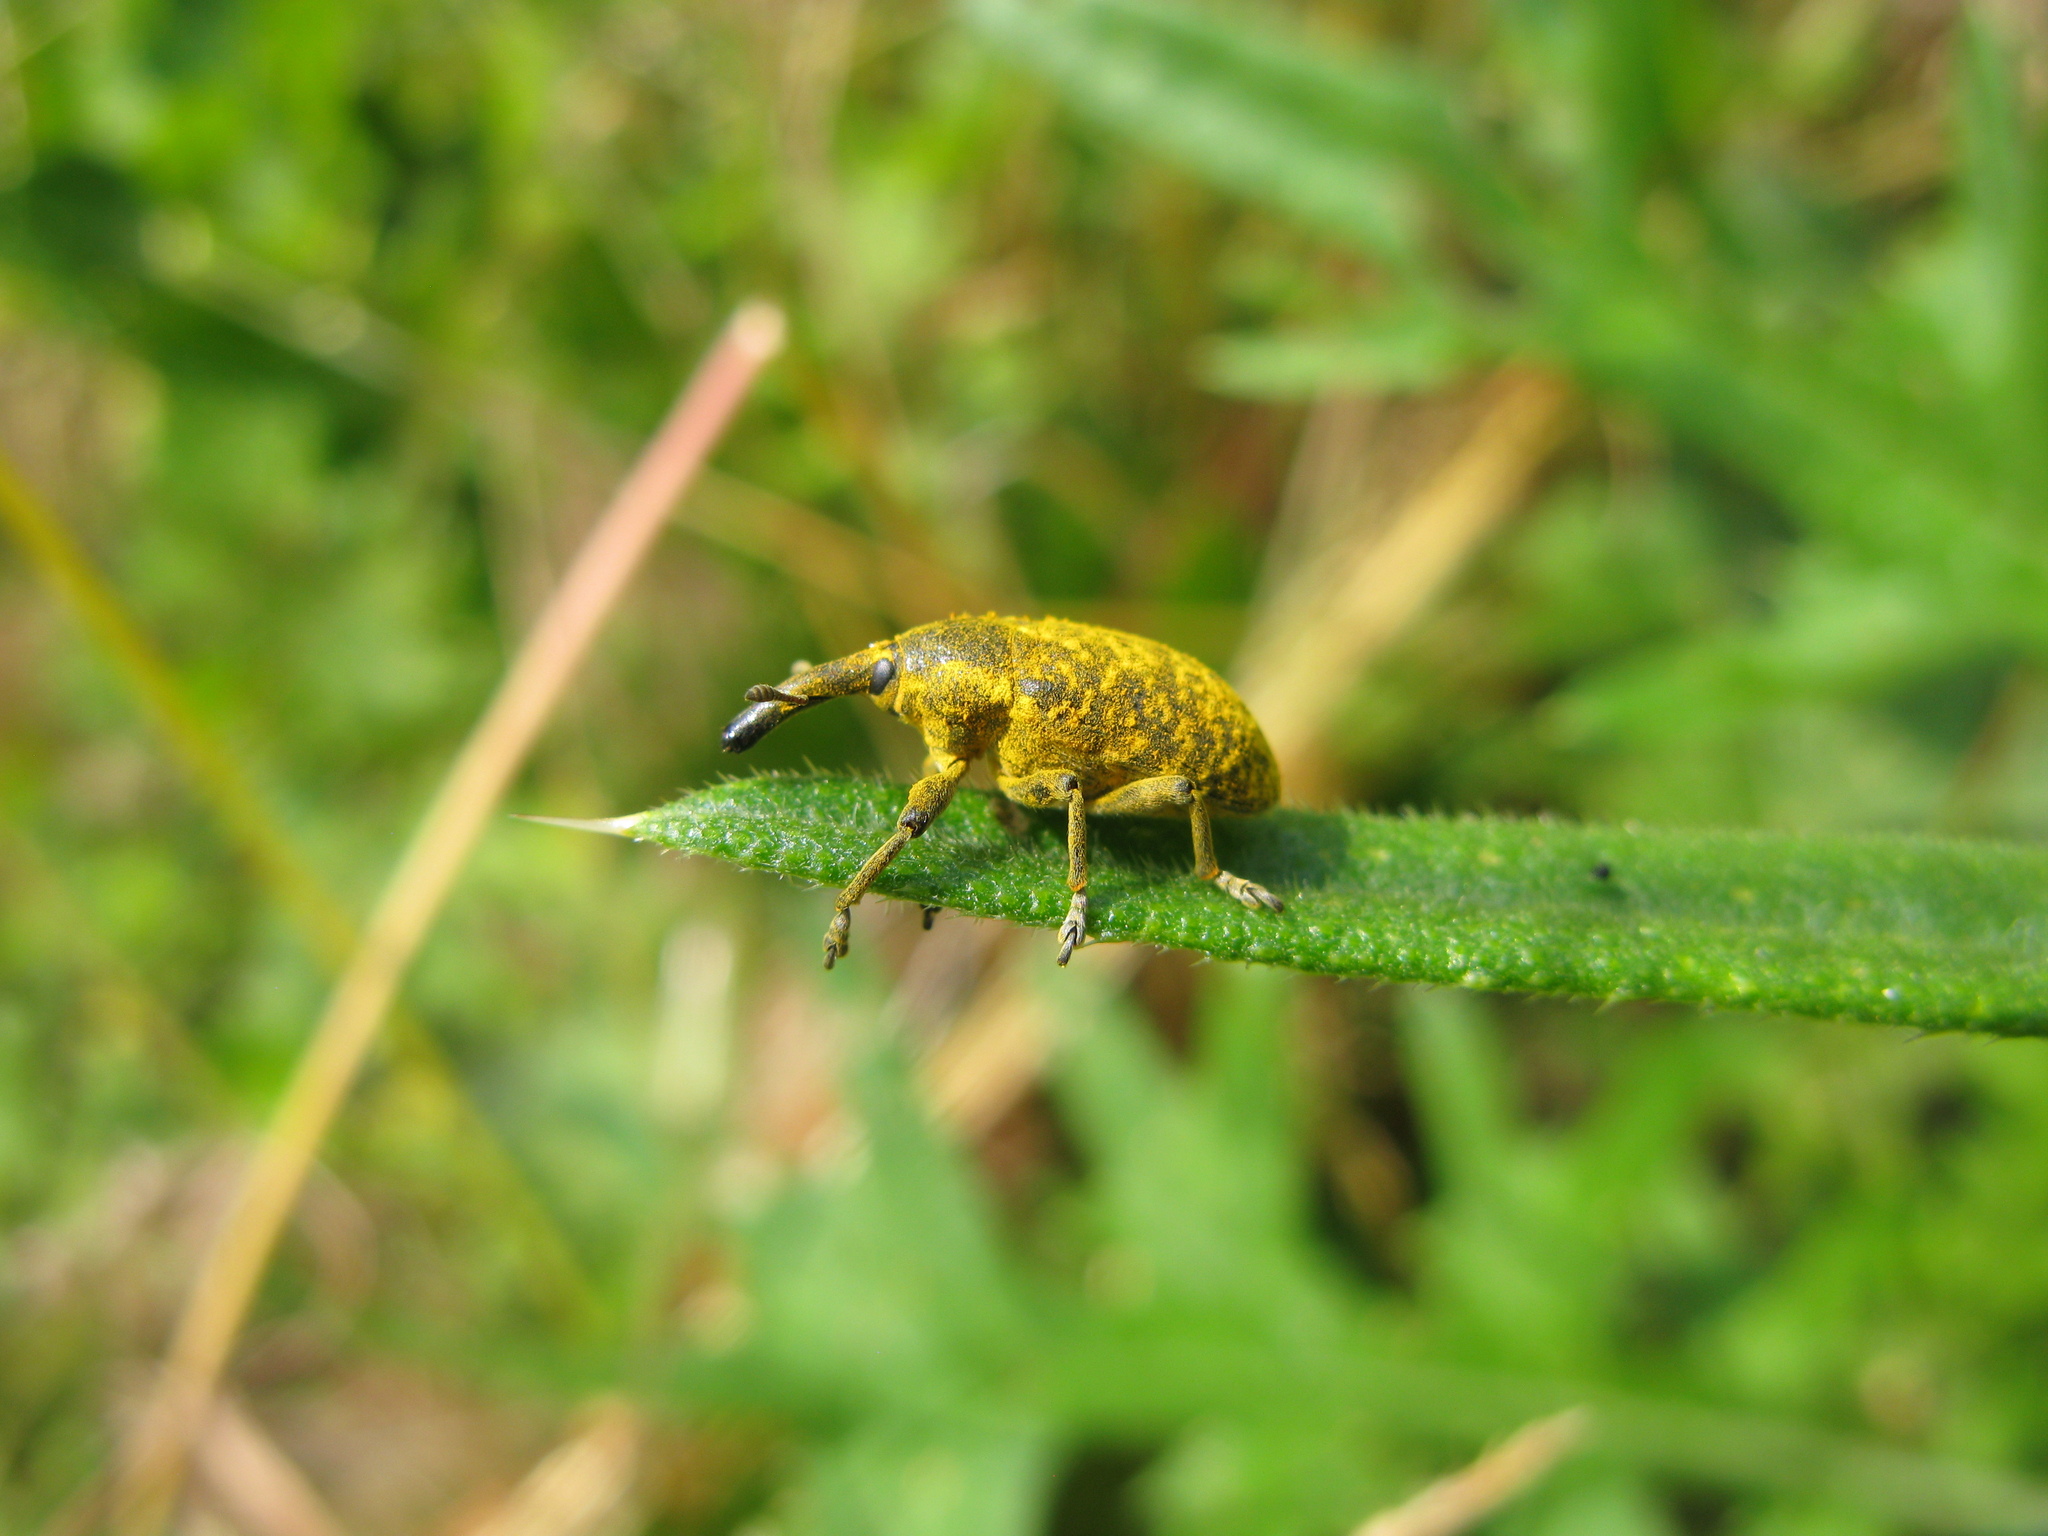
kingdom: Animalia
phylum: Arthropoda
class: Insecta
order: Coleoptera
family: Curculionidae
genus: Larinus
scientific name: Larinus sturnus
